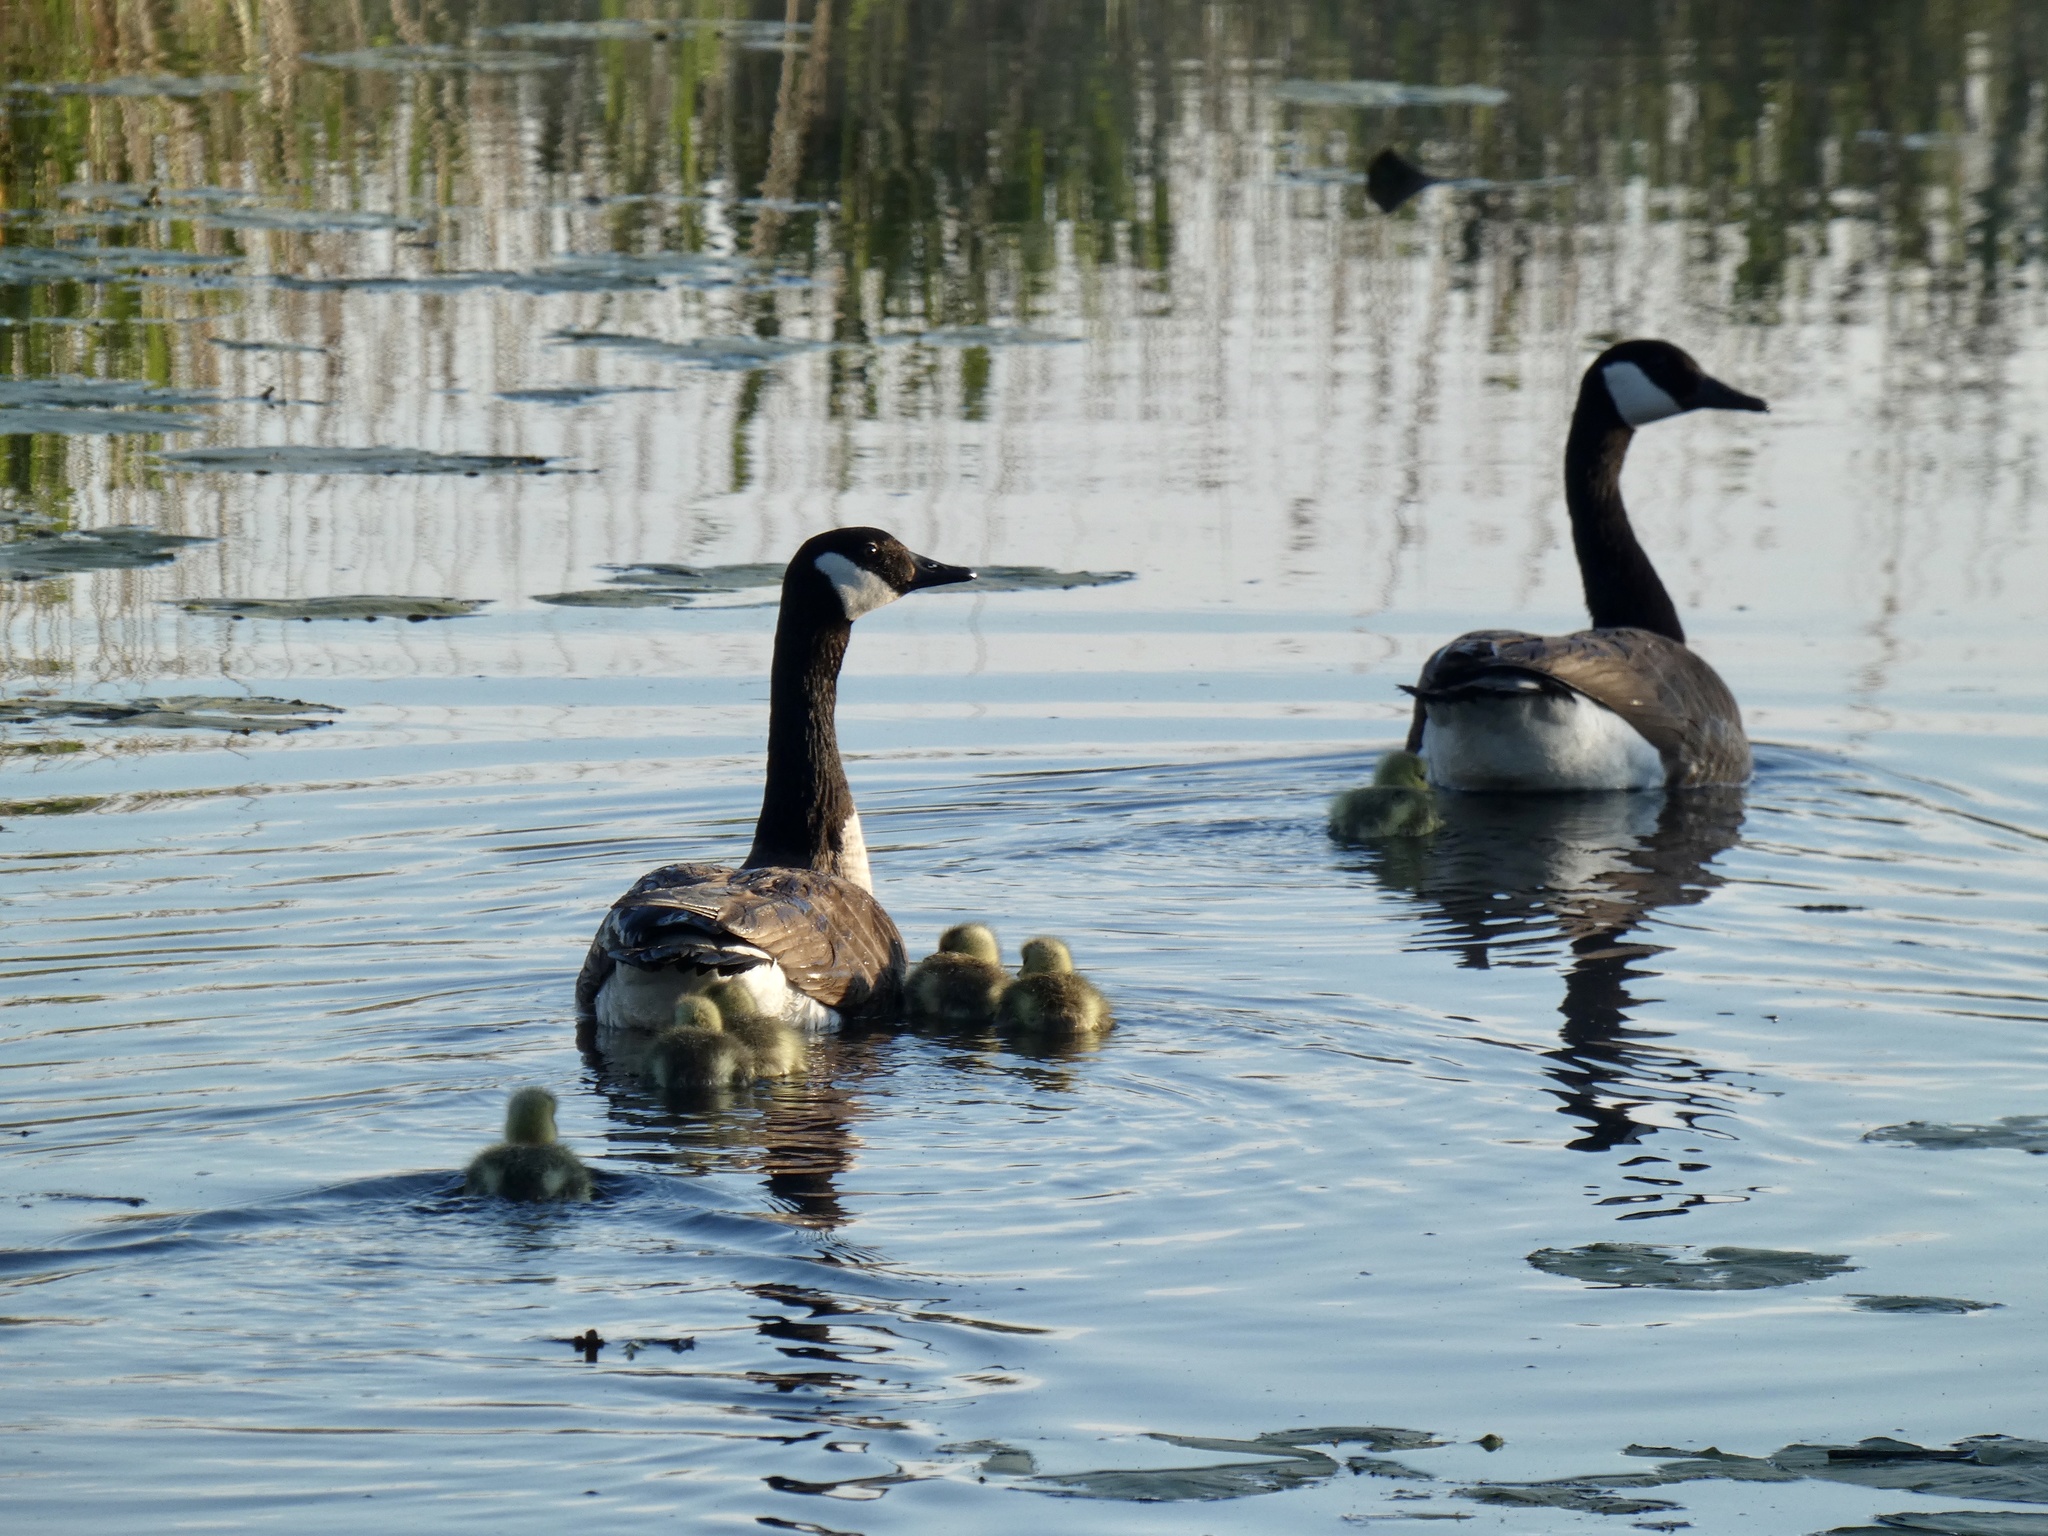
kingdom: Animalia
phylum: Chordata
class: Aves
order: Anseriformes
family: Anatidae
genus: Branta
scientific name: Branta canadensis
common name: Canada goose
